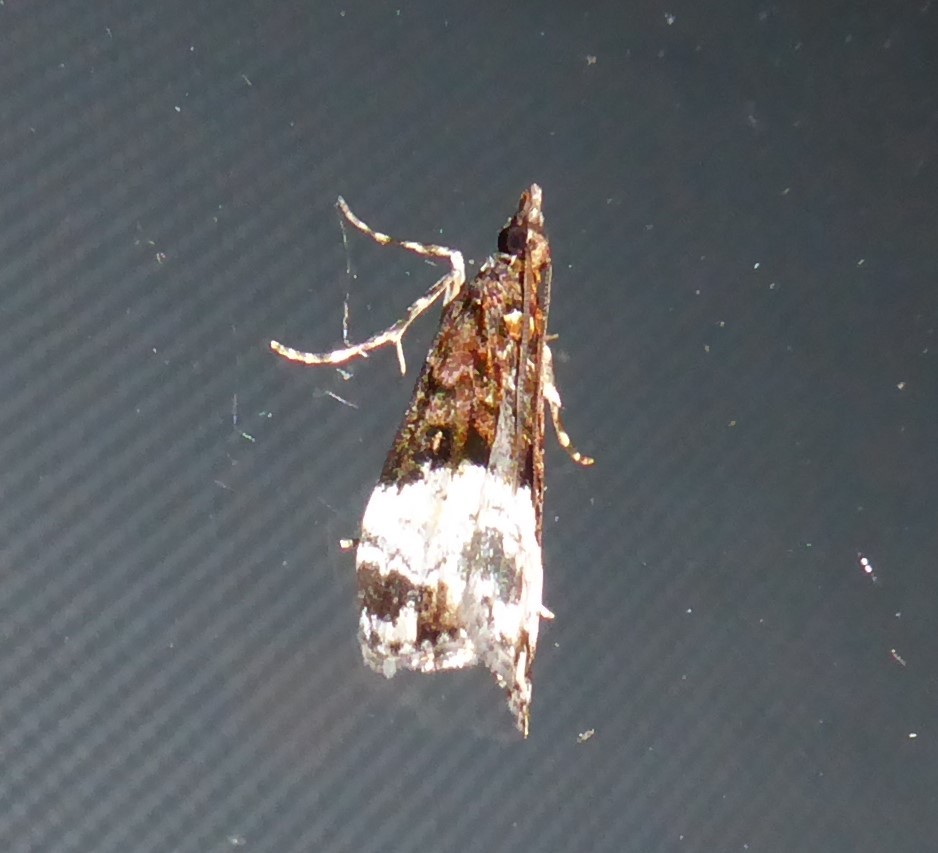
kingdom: Animalia
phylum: Arthropoda
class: Insecta
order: Lepidoptera
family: Crambidae
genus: Scoparia
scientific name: Scoparia minusculalis
